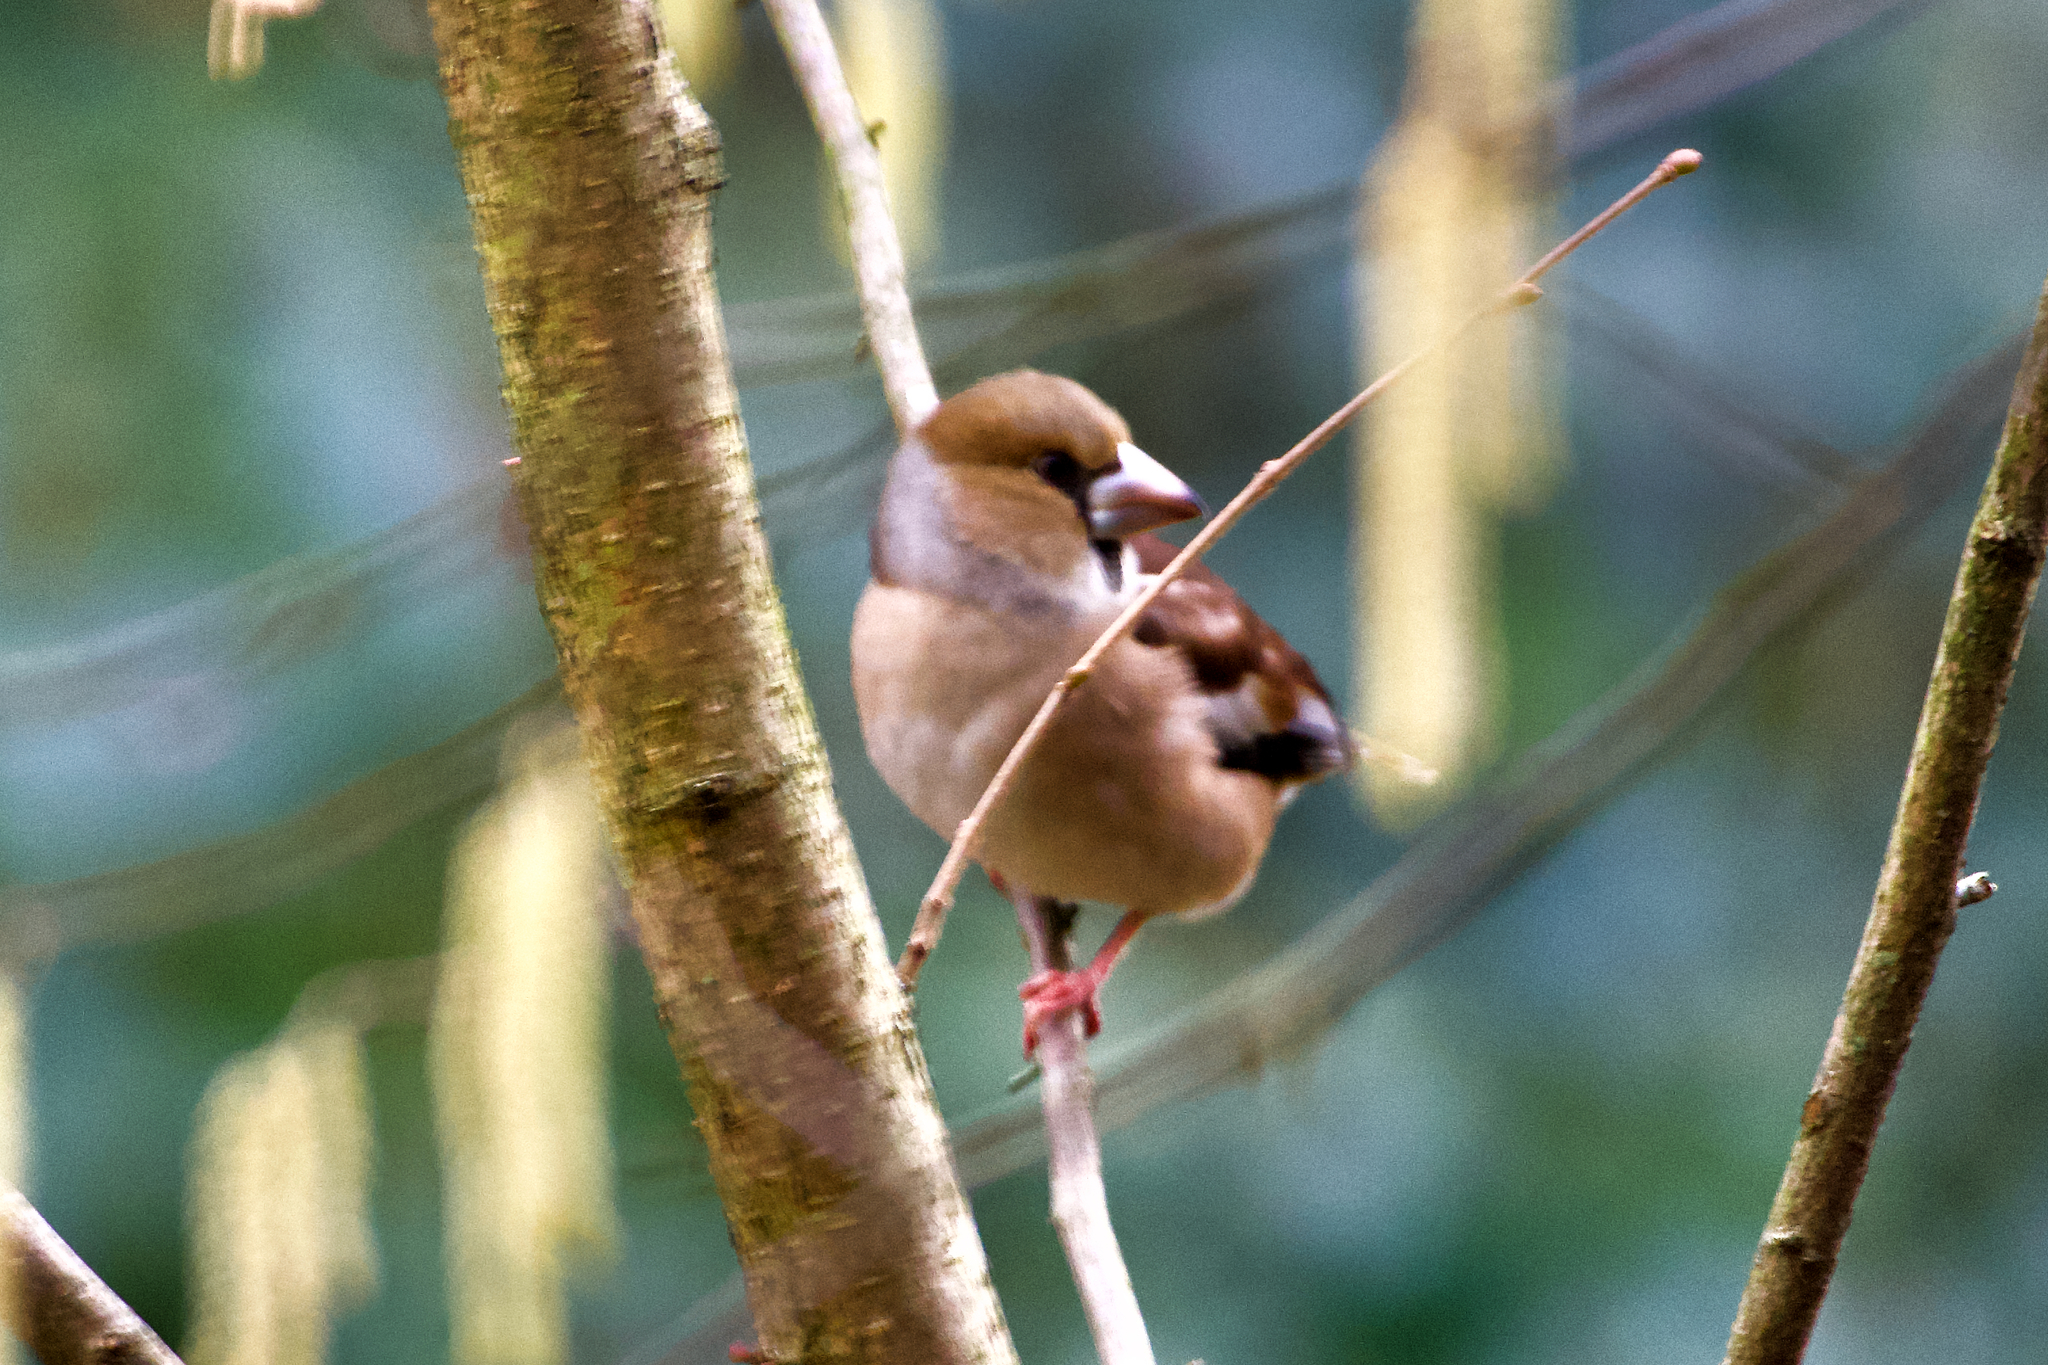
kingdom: Animalia
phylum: Chordata
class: Aves
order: Passeriformes
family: Fringillidae
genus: Coccothraustes
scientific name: Coccothraustes coccothraustes
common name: Hawfinch
